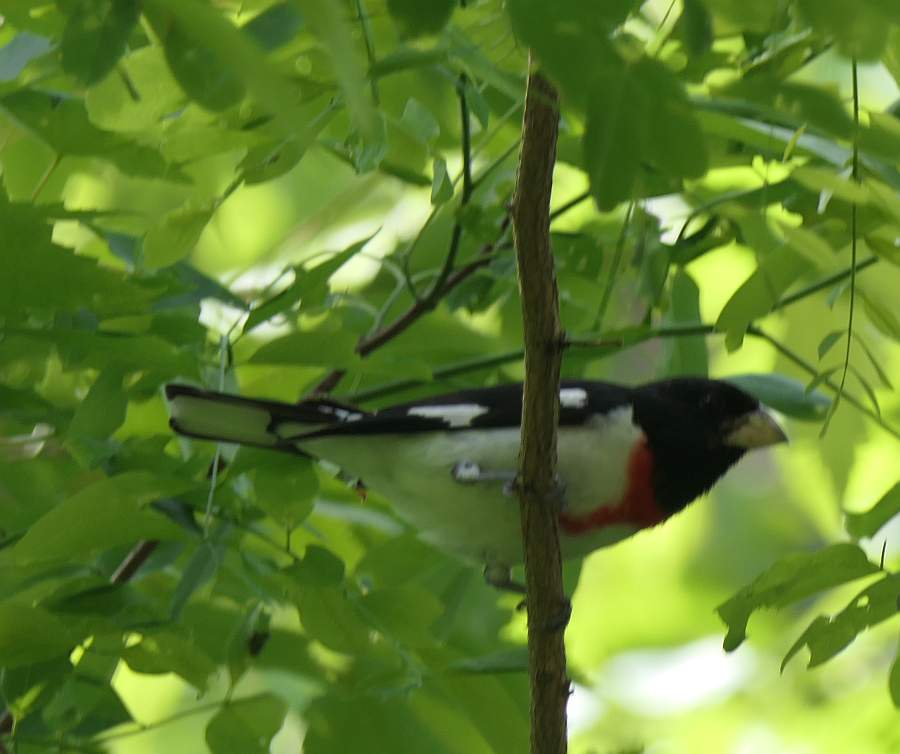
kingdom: Animalia
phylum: Chordata
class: Aves
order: Passeriformes
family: Cardinalidae
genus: Pheucticus
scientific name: Pheucticus ludovicianus
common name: Rose-breasted grosbeak
